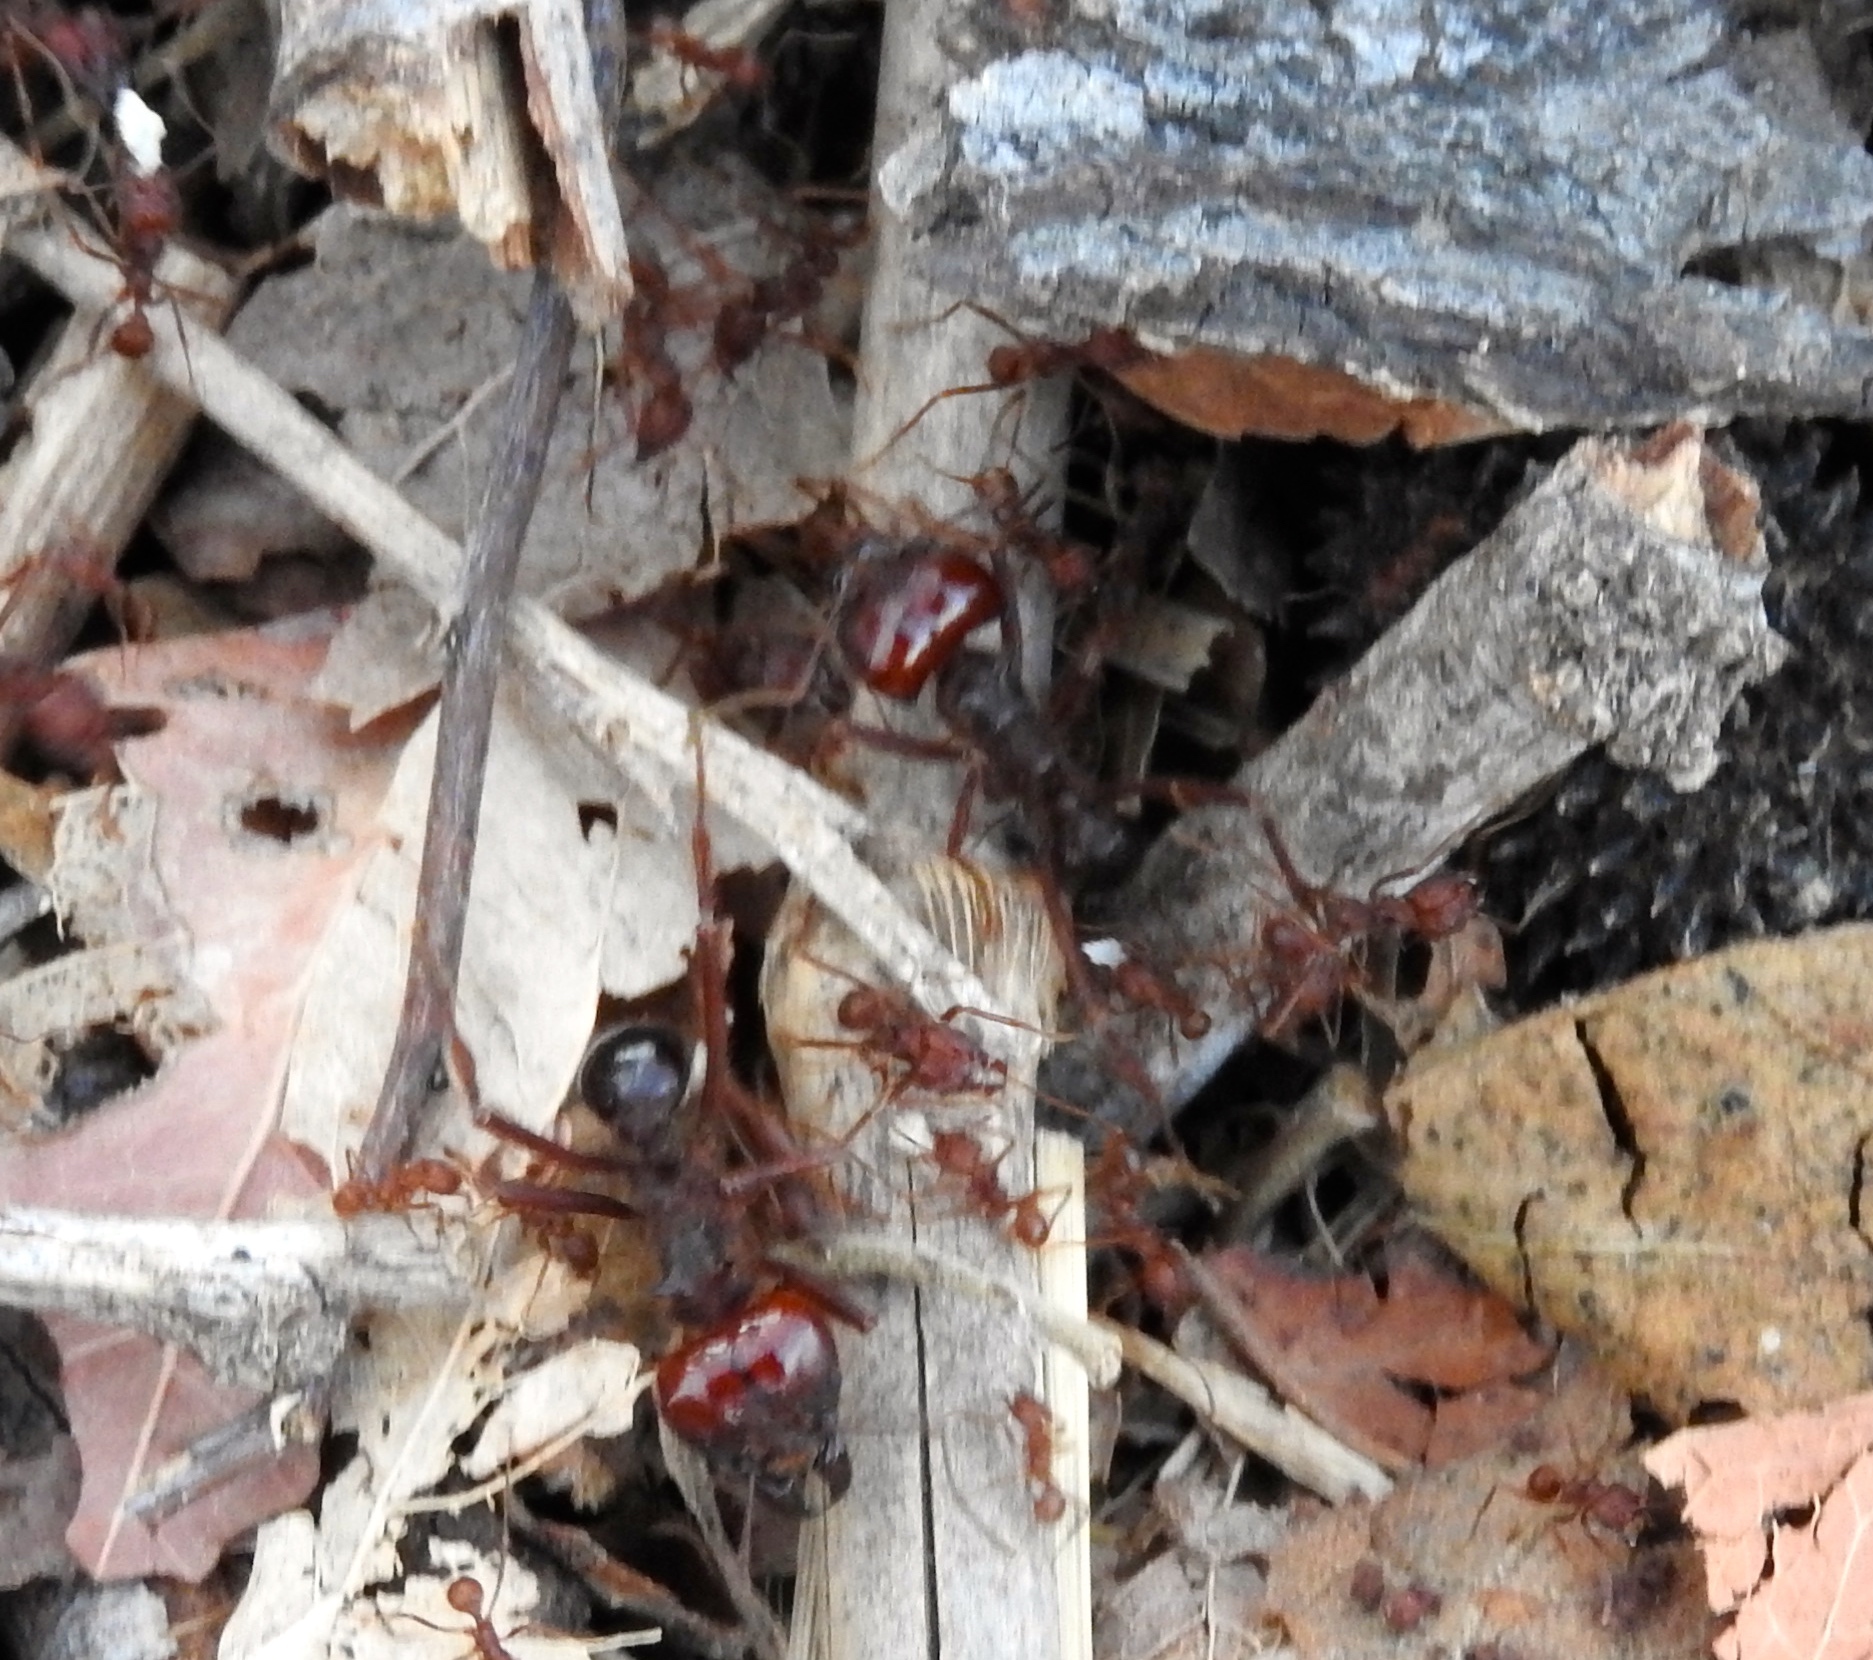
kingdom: Animalia
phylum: Arthropoda
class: Insecta
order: Hymenoptera
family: Formicidae
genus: Atta
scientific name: Atta mexicana
